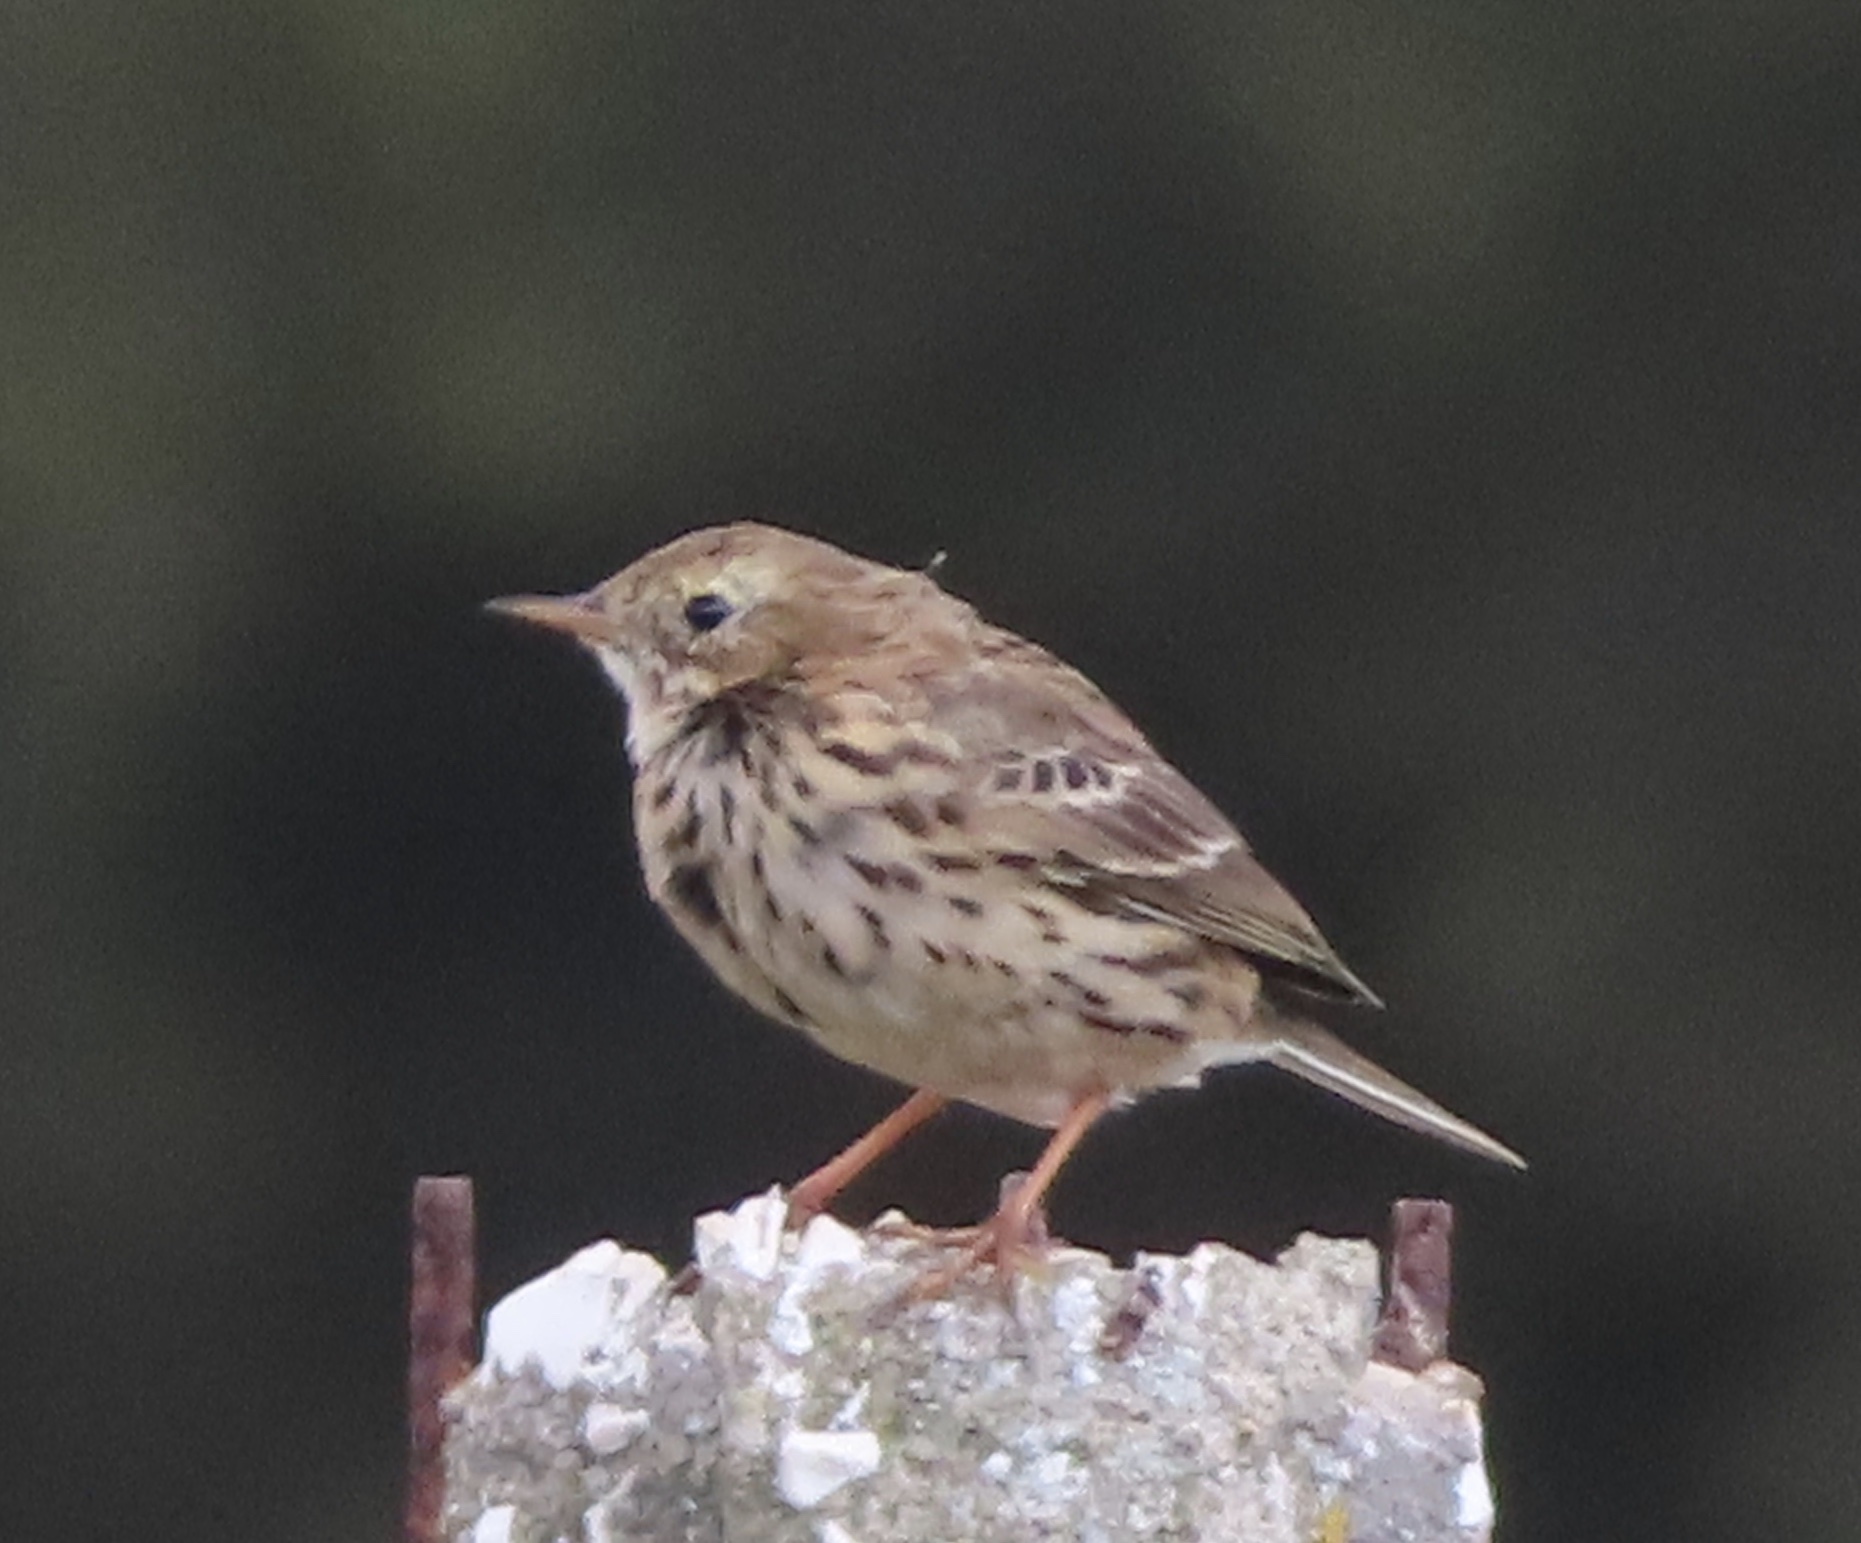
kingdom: Animalia
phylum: Chordata
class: Aves
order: Passeriformes
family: Motacillidae
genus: Anthus
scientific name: Anthus pratensis
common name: Meadow pipit
